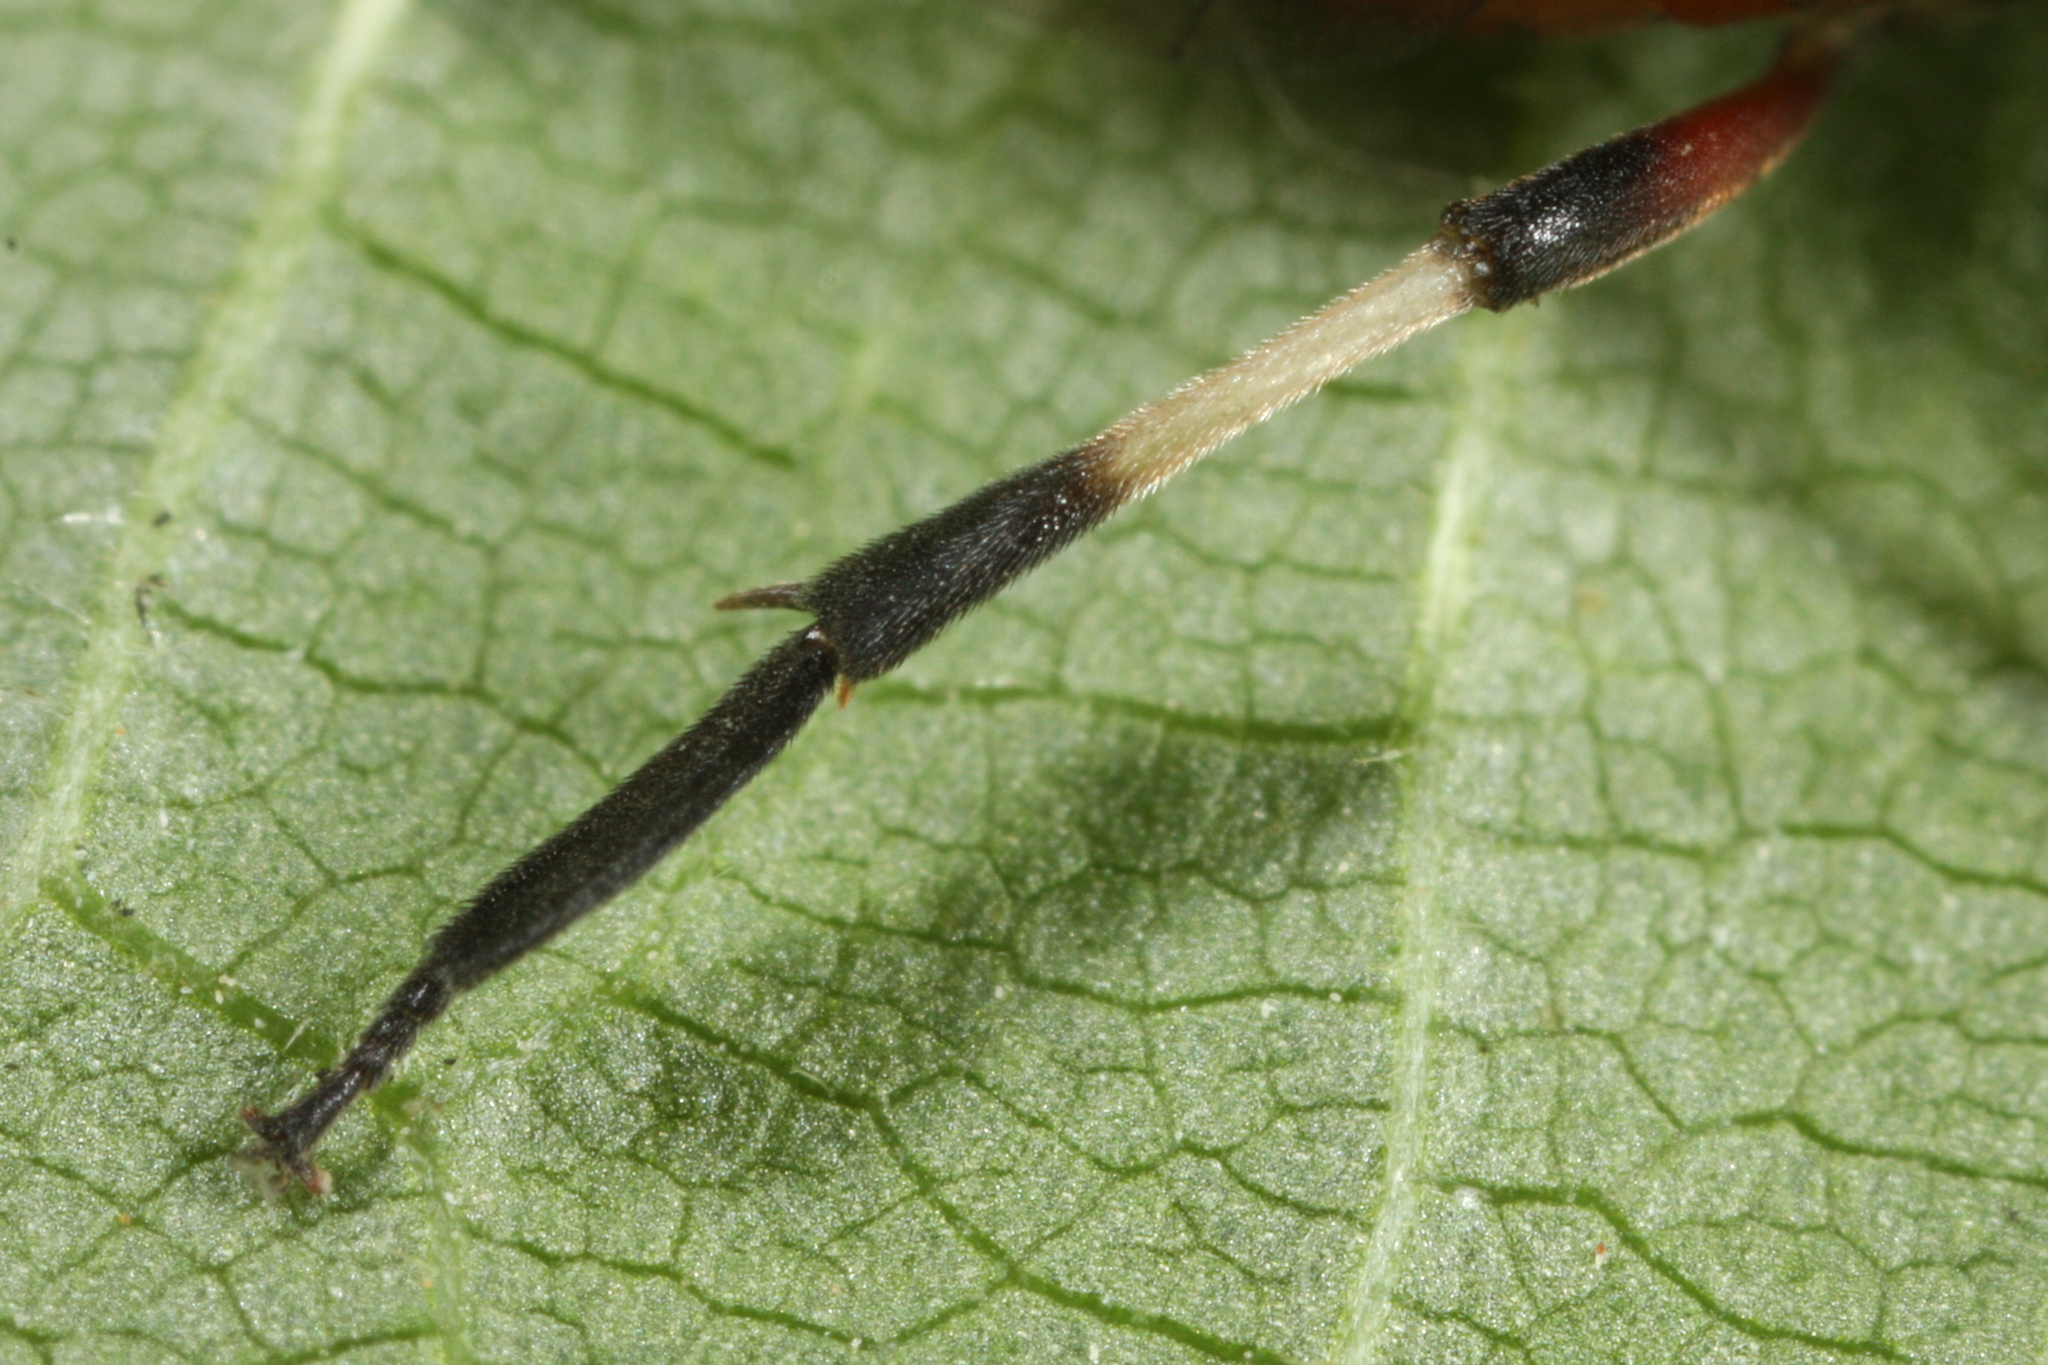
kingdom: Animalia
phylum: Arthropoda
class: Insecta
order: Hymenoptera
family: Tenthredinidae
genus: Craesus
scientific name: Craesus septentrionalis
